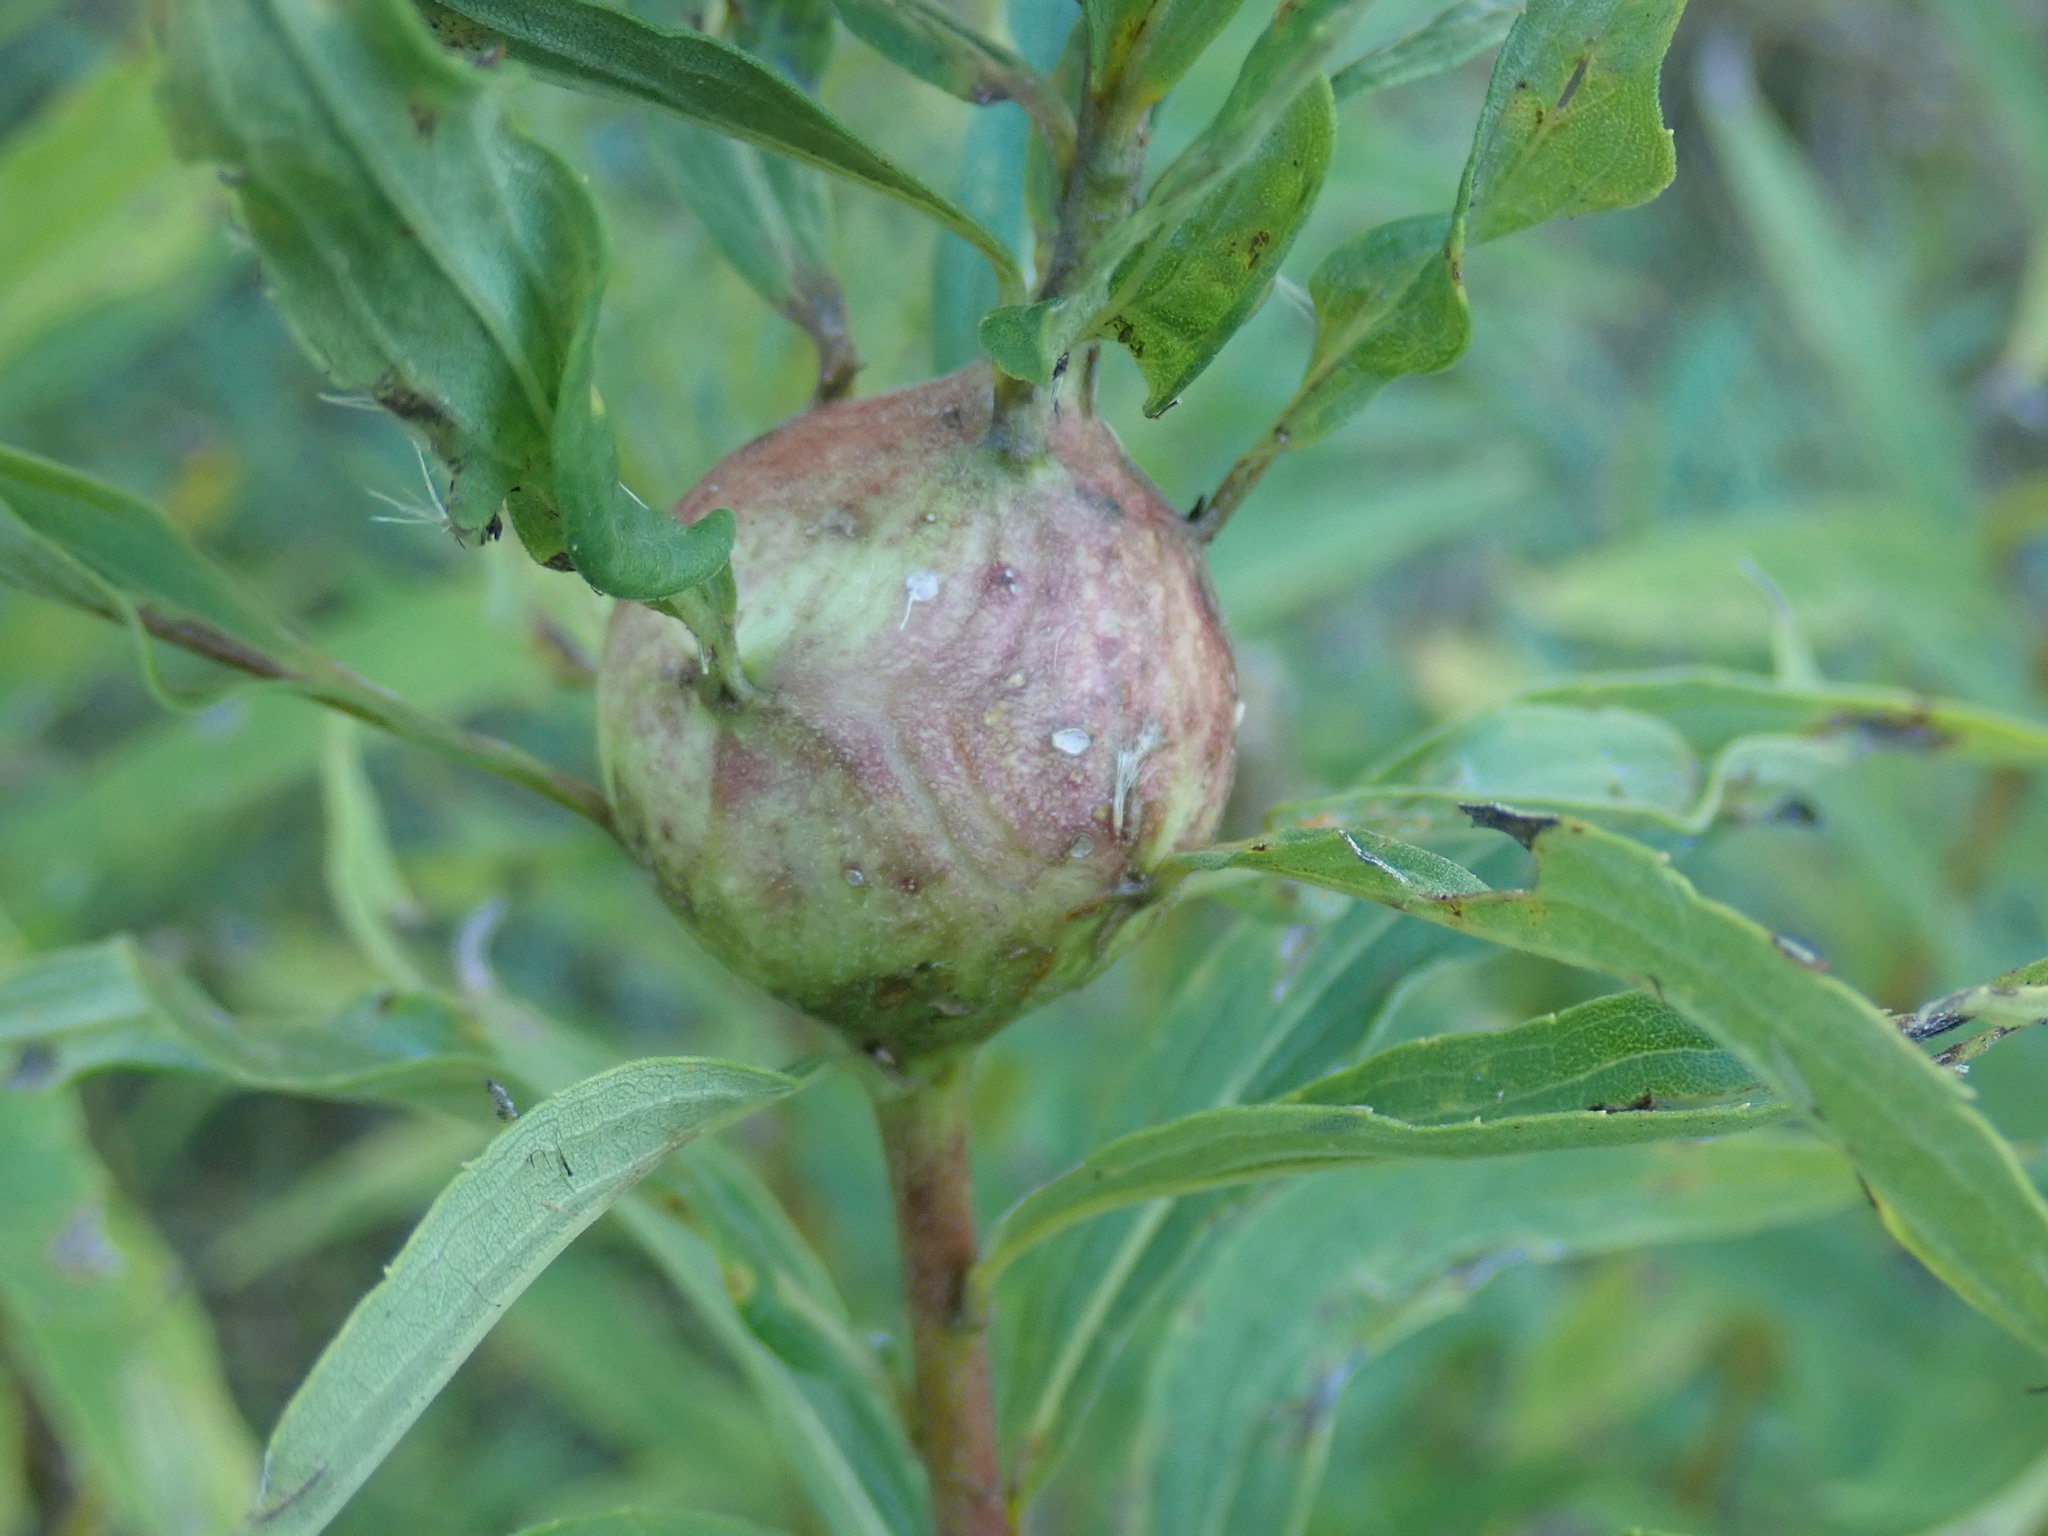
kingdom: Animalia
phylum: Arthropoda
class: Insecta
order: Diptera
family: Tephritidae
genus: Eurosta
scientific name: Eurosta solidaginis
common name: Goldenrod gall fly
